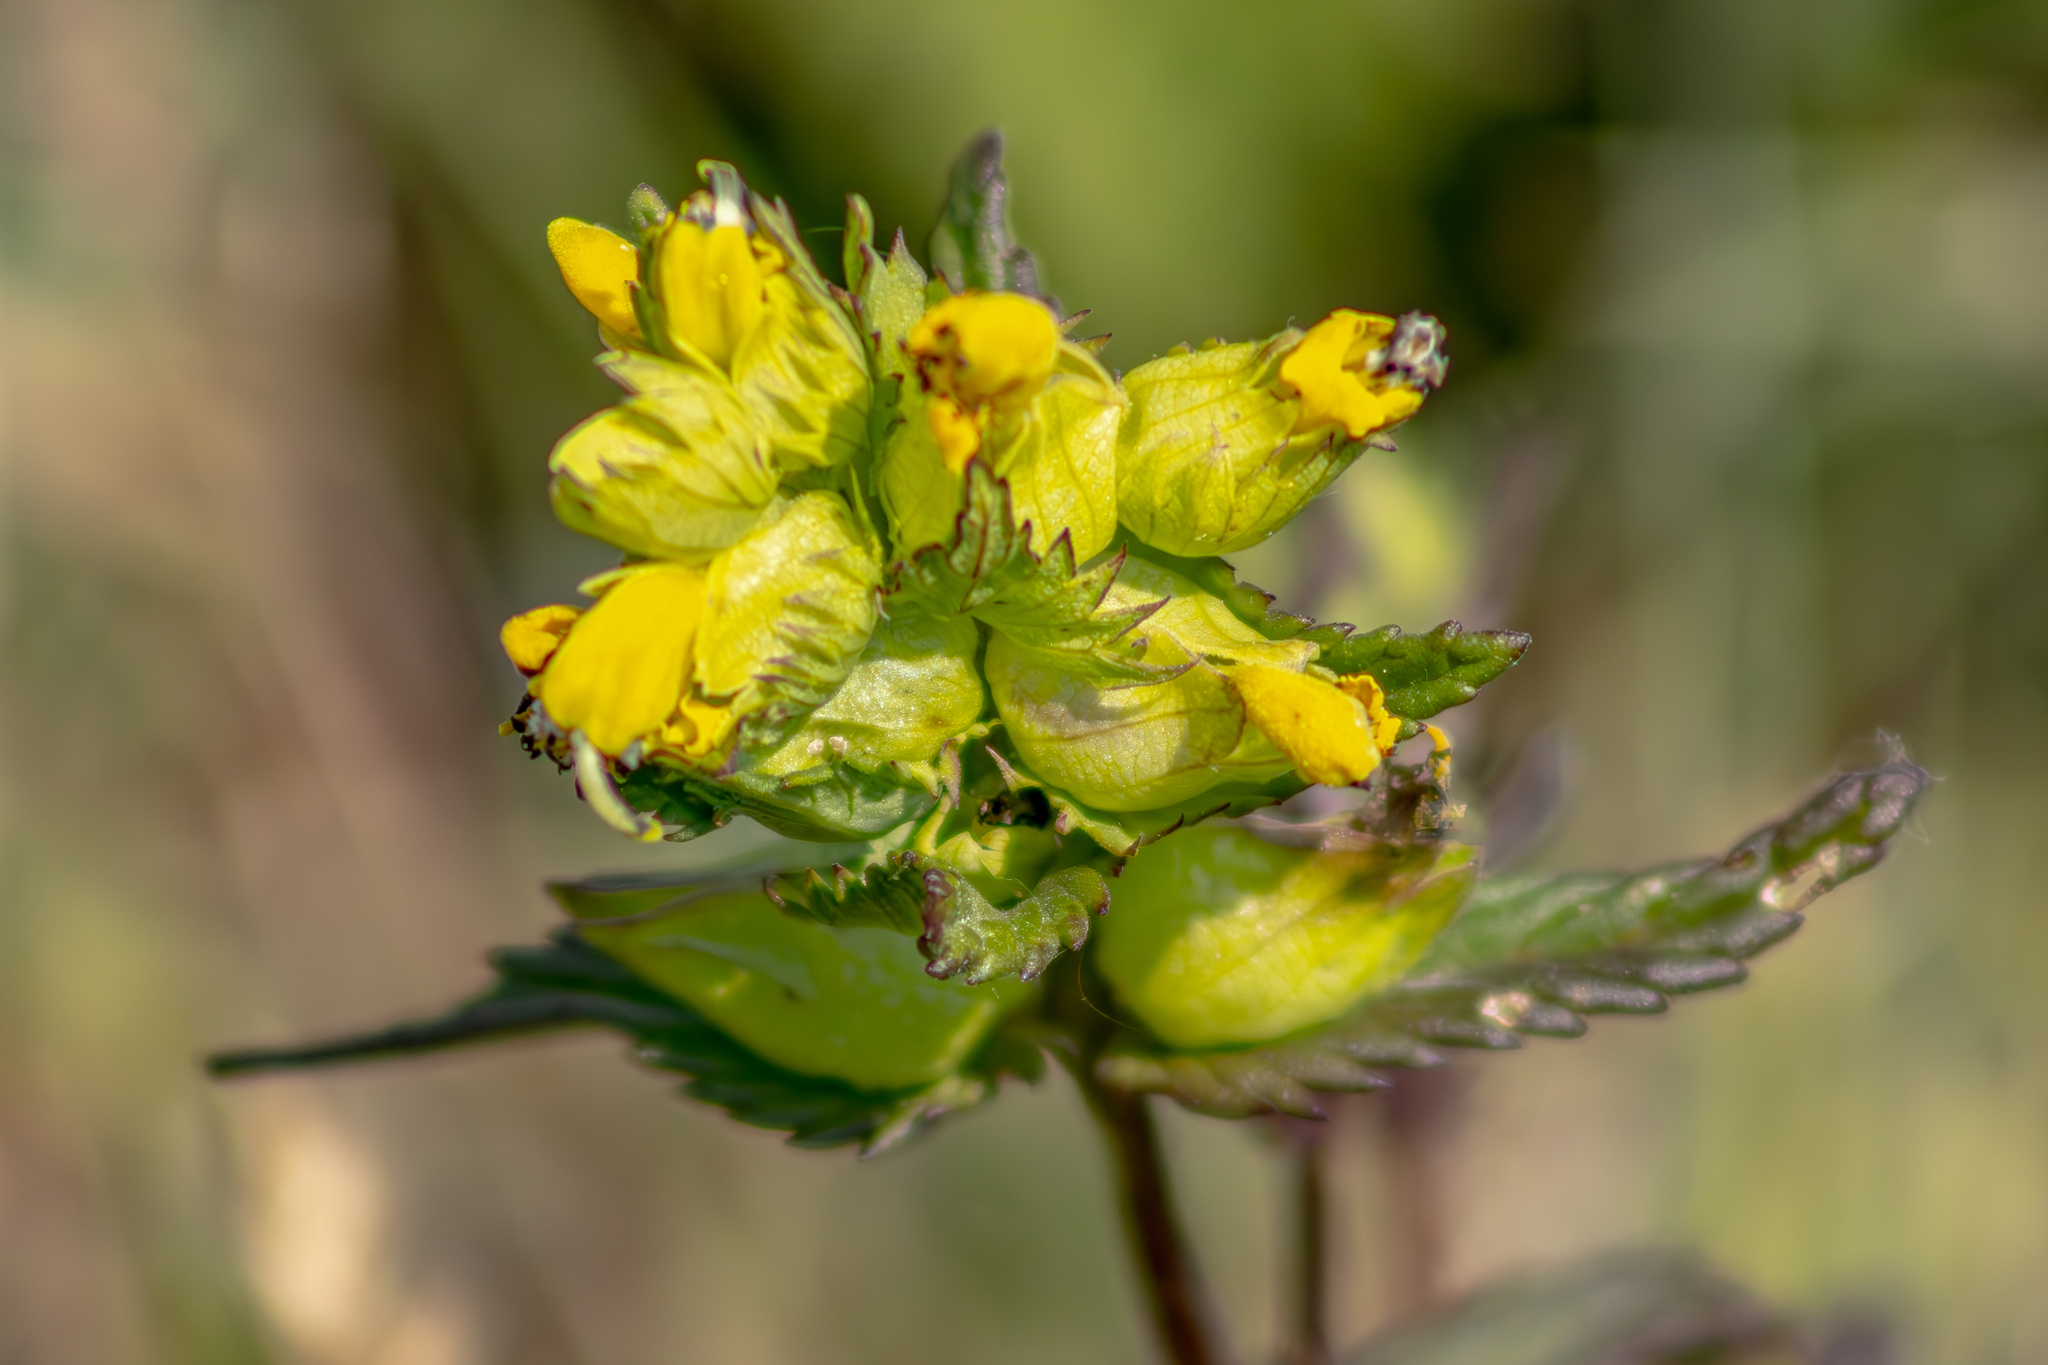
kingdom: Plantae
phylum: Tracheophyta
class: Magnoliopsida
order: Lamiales
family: Orobanchaceae
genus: Rhinanthus
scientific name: Rhinanthus minor
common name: Yellow-rattle
